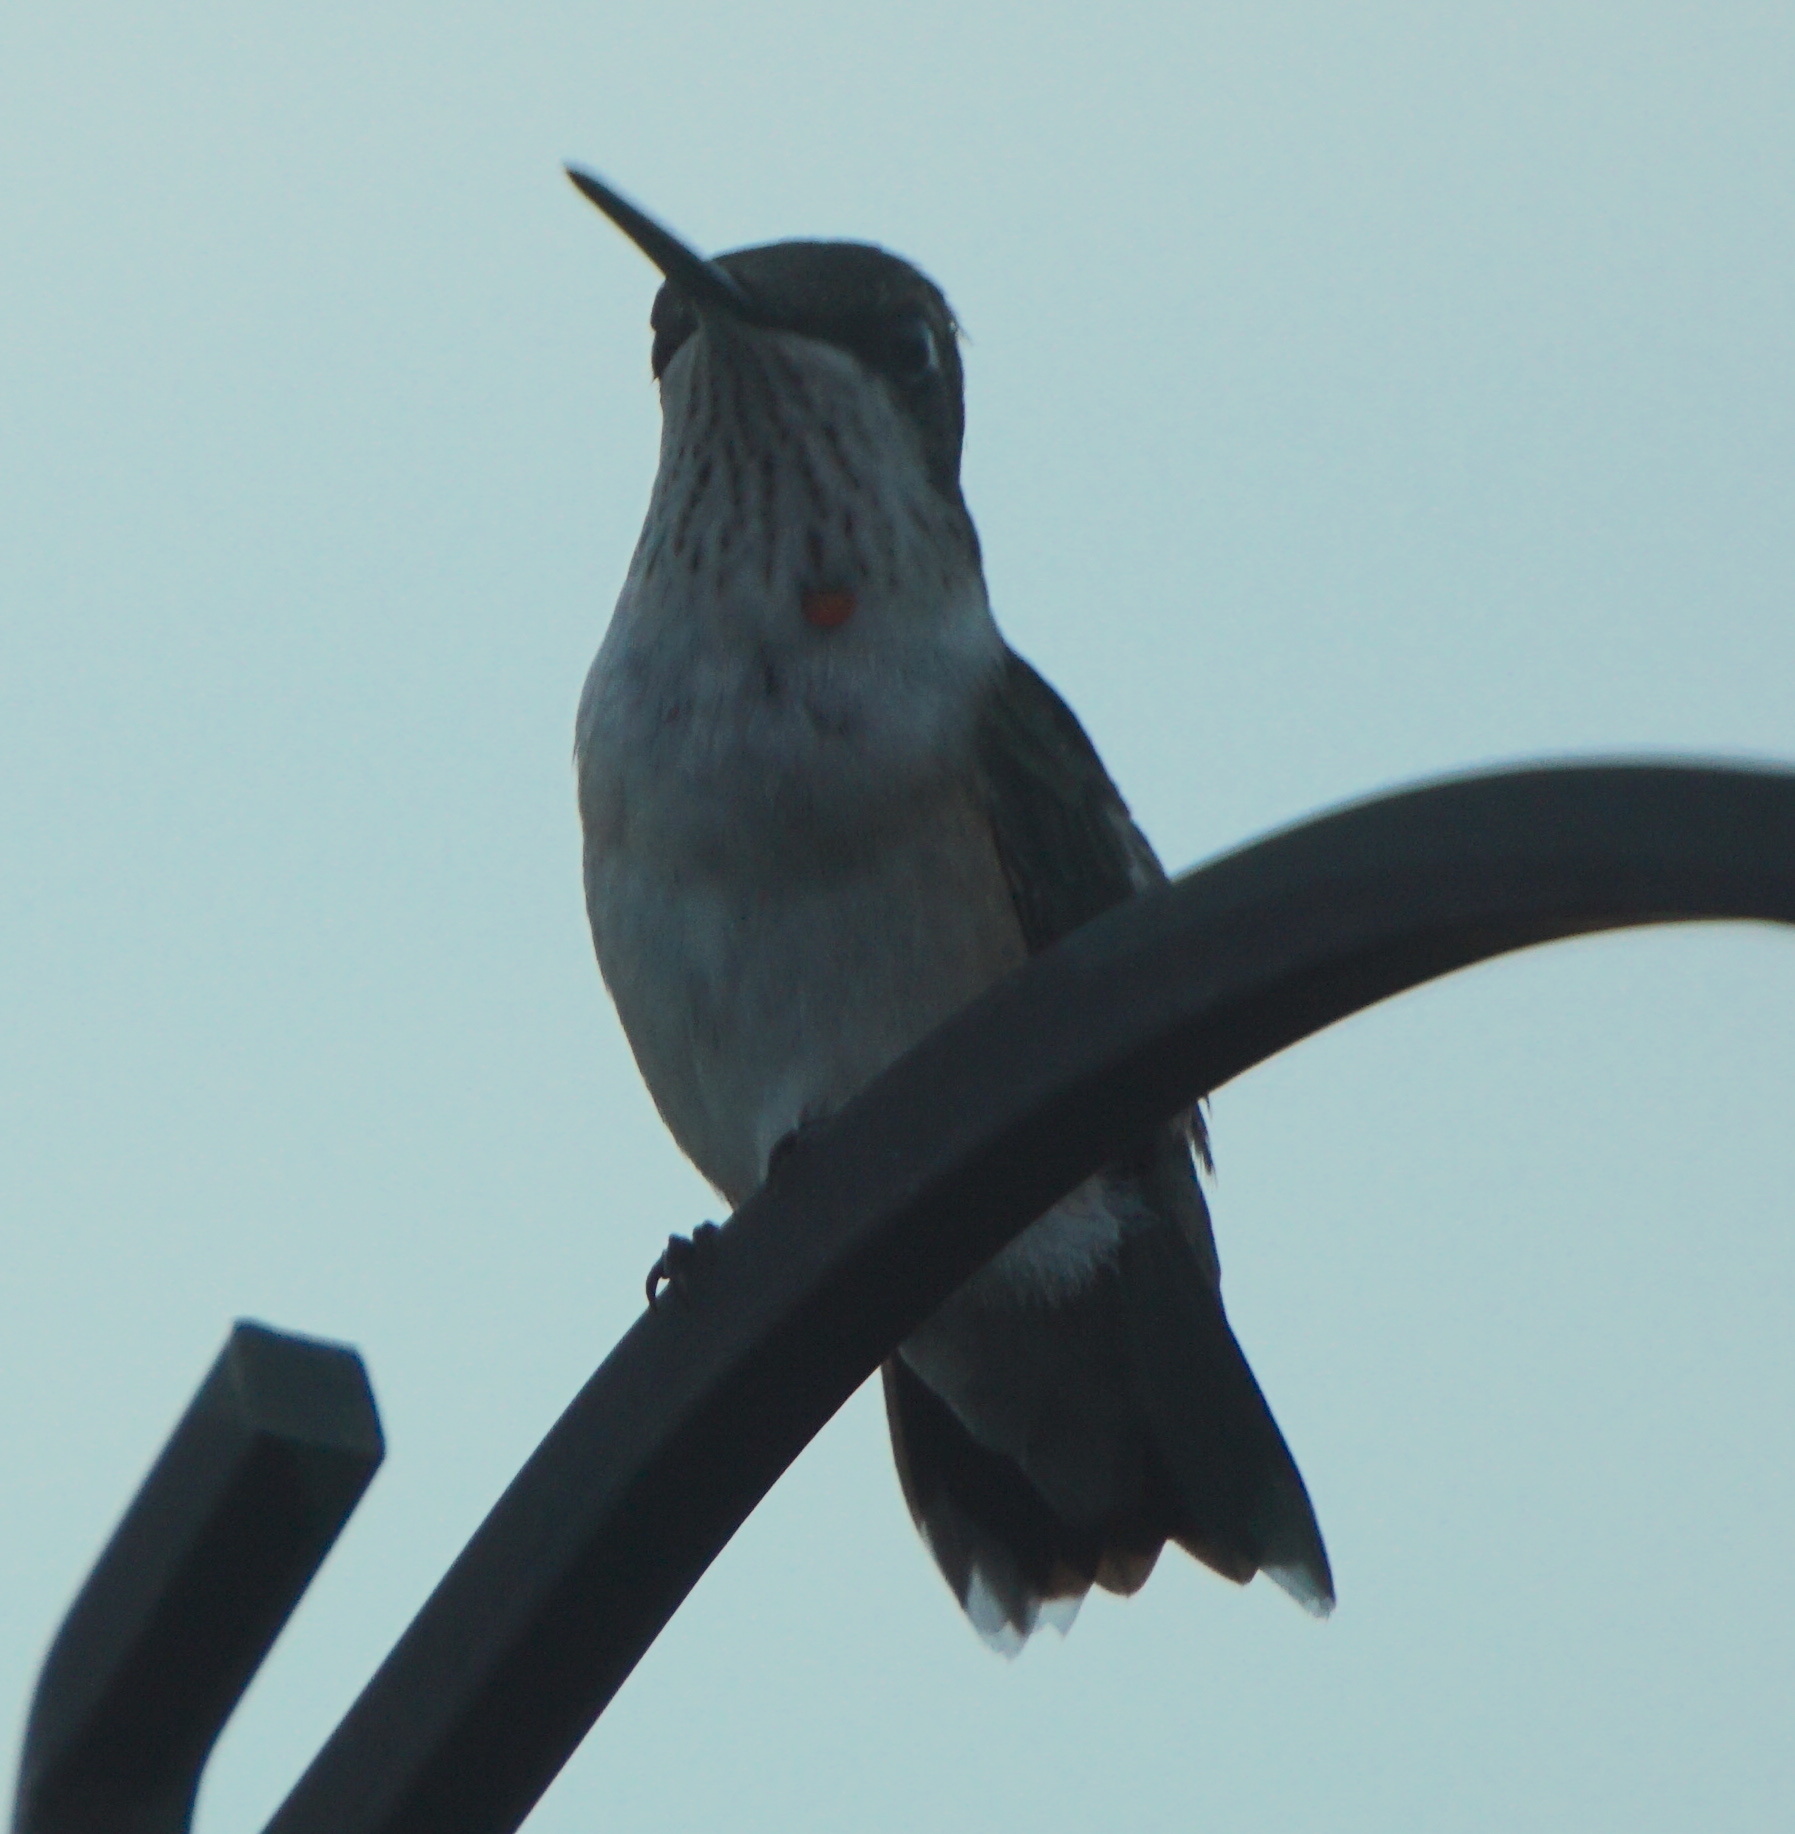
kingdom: Animalia
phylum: Chordata
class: Aves
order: Apodiformes
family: Trochilidae
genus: Archilochus
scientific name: Archilochus colubris
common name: Ruby-throated hummingbird
